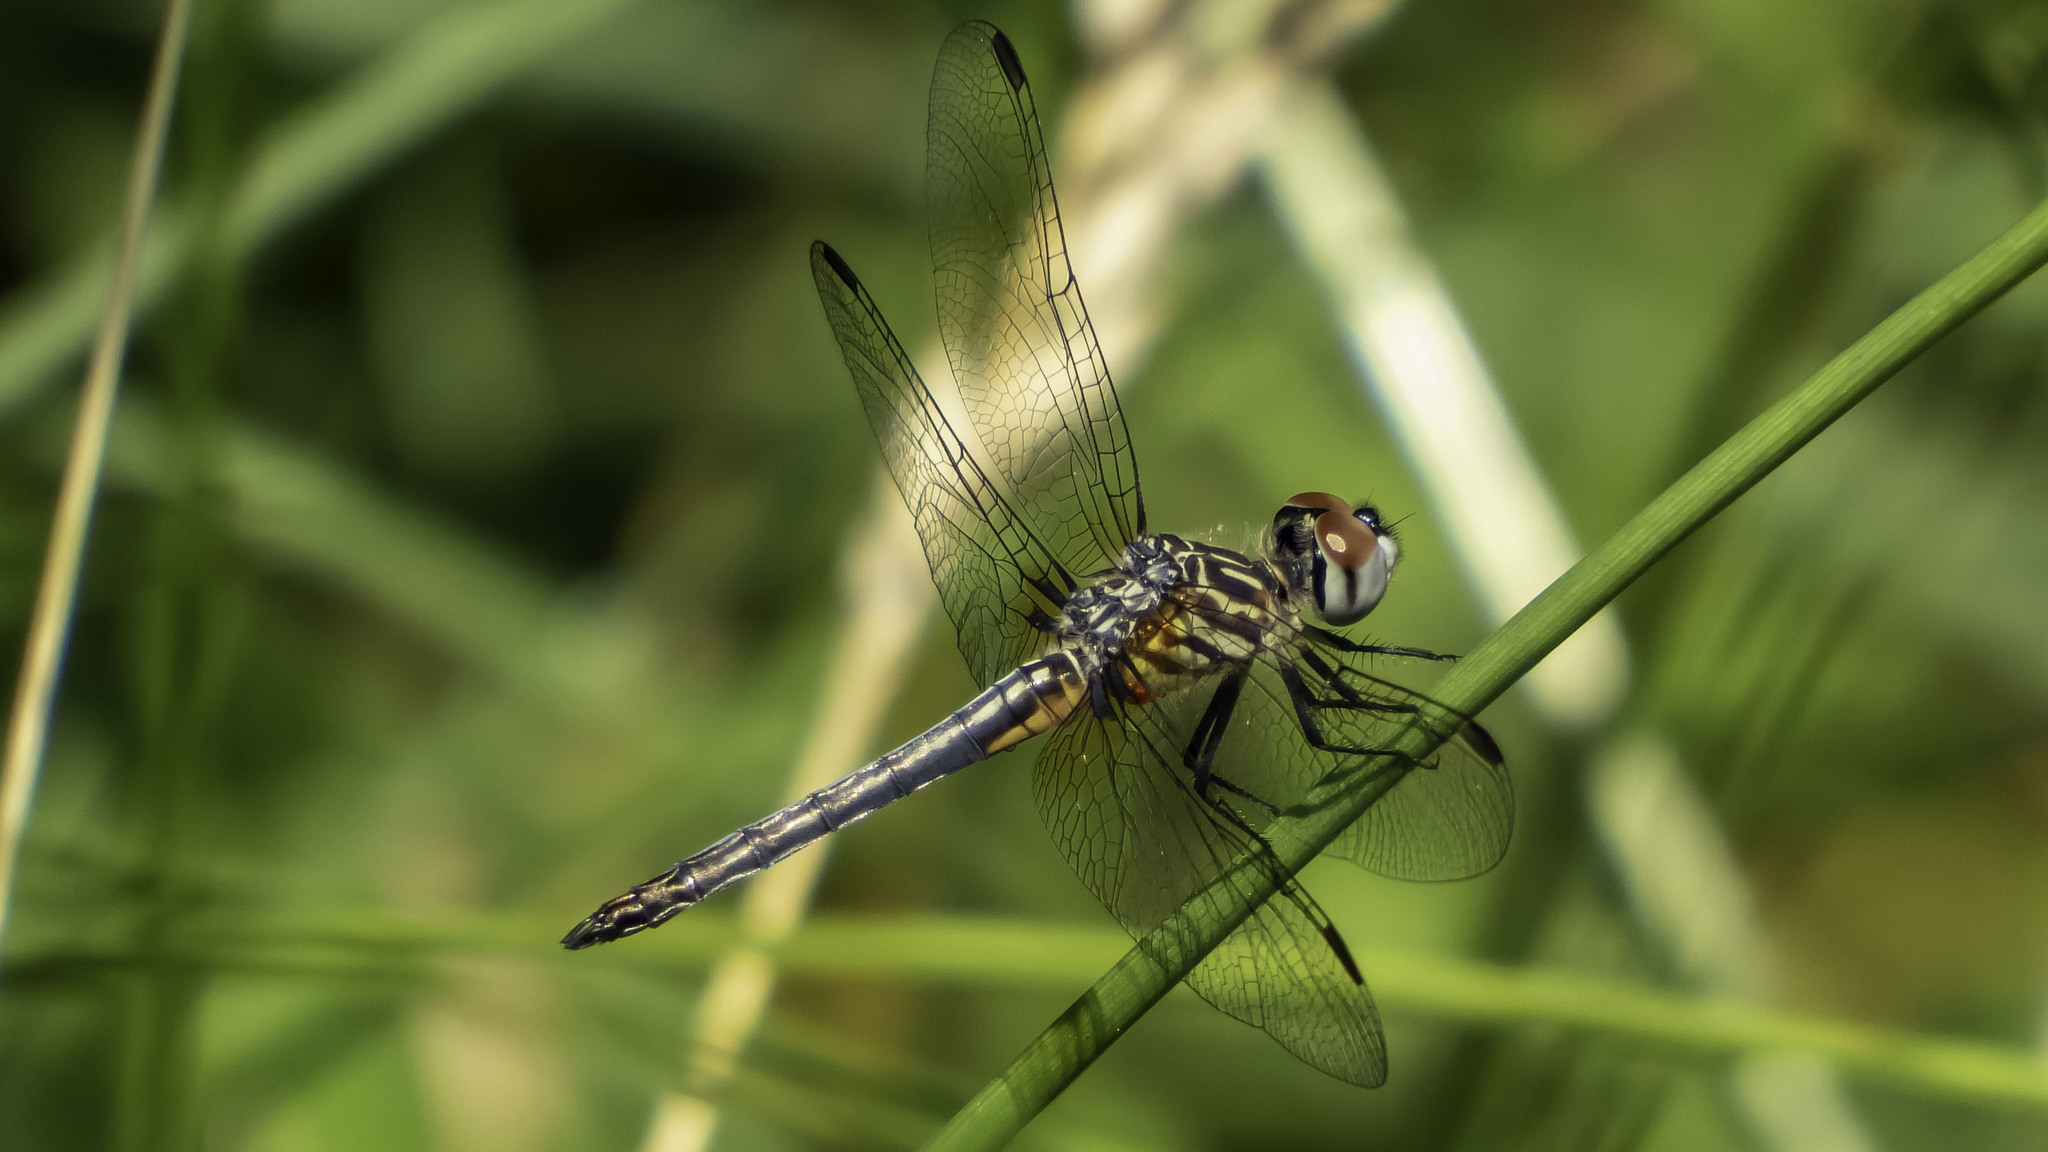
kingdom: Animalia
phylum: Arthropoda
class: Insecta
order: Odonata
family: Libellulidae
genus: Pachydiplax
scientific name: Pachydiplax longipennis
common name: Blue dasher
